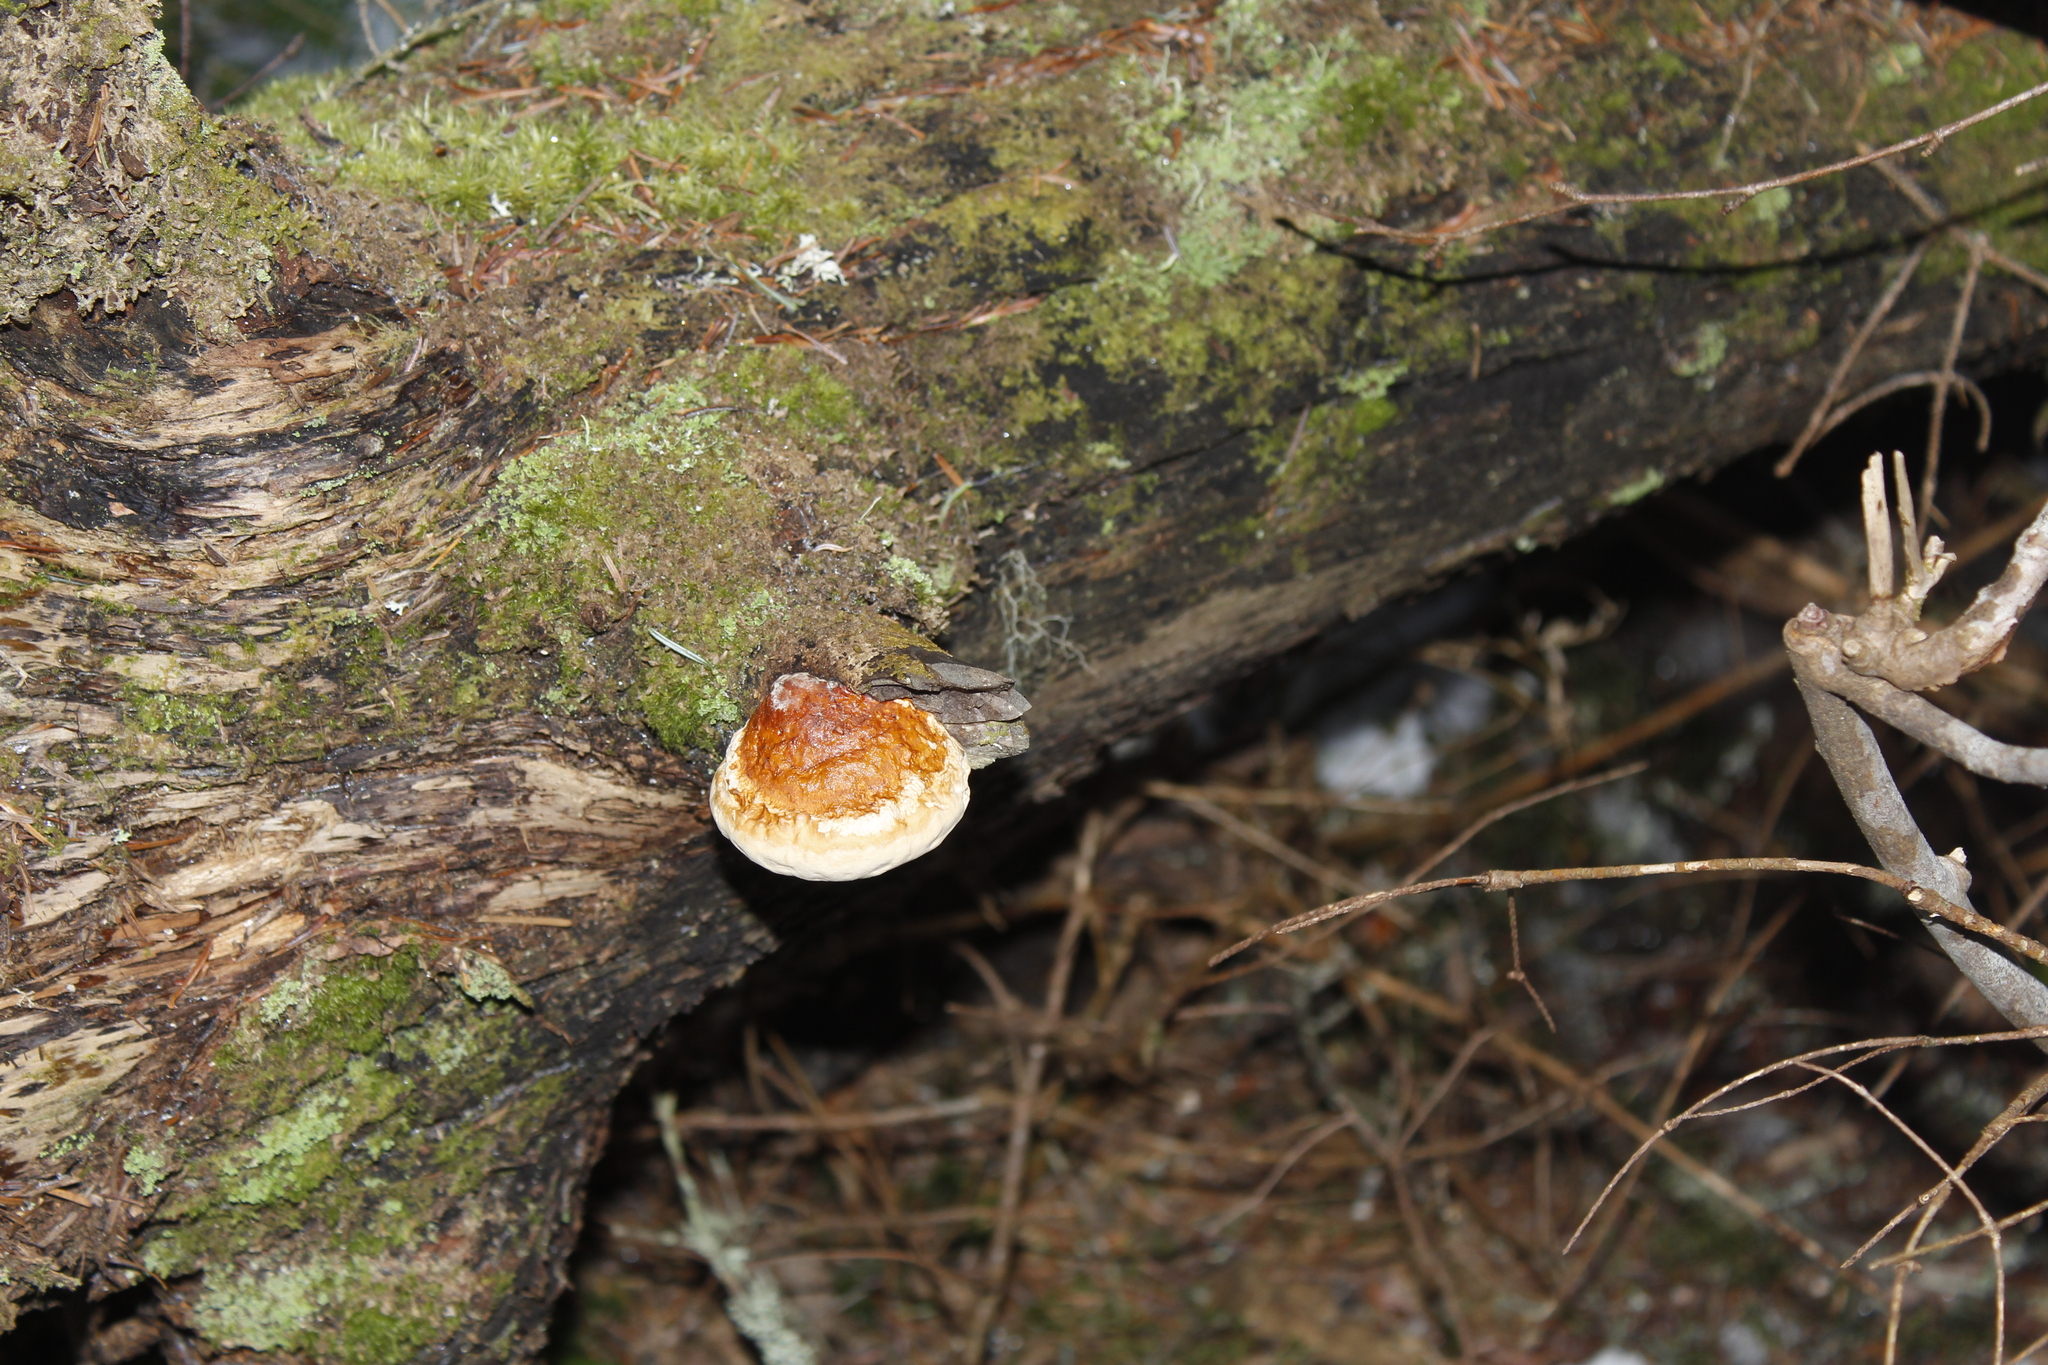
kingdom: Fungi
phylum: Basidiomycota
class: Agaricomycetes
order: Polyporales
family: Fomitopsidaceae
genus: Fomitopsis
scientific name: Fomitopsis mounceae
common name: Northern red belt
